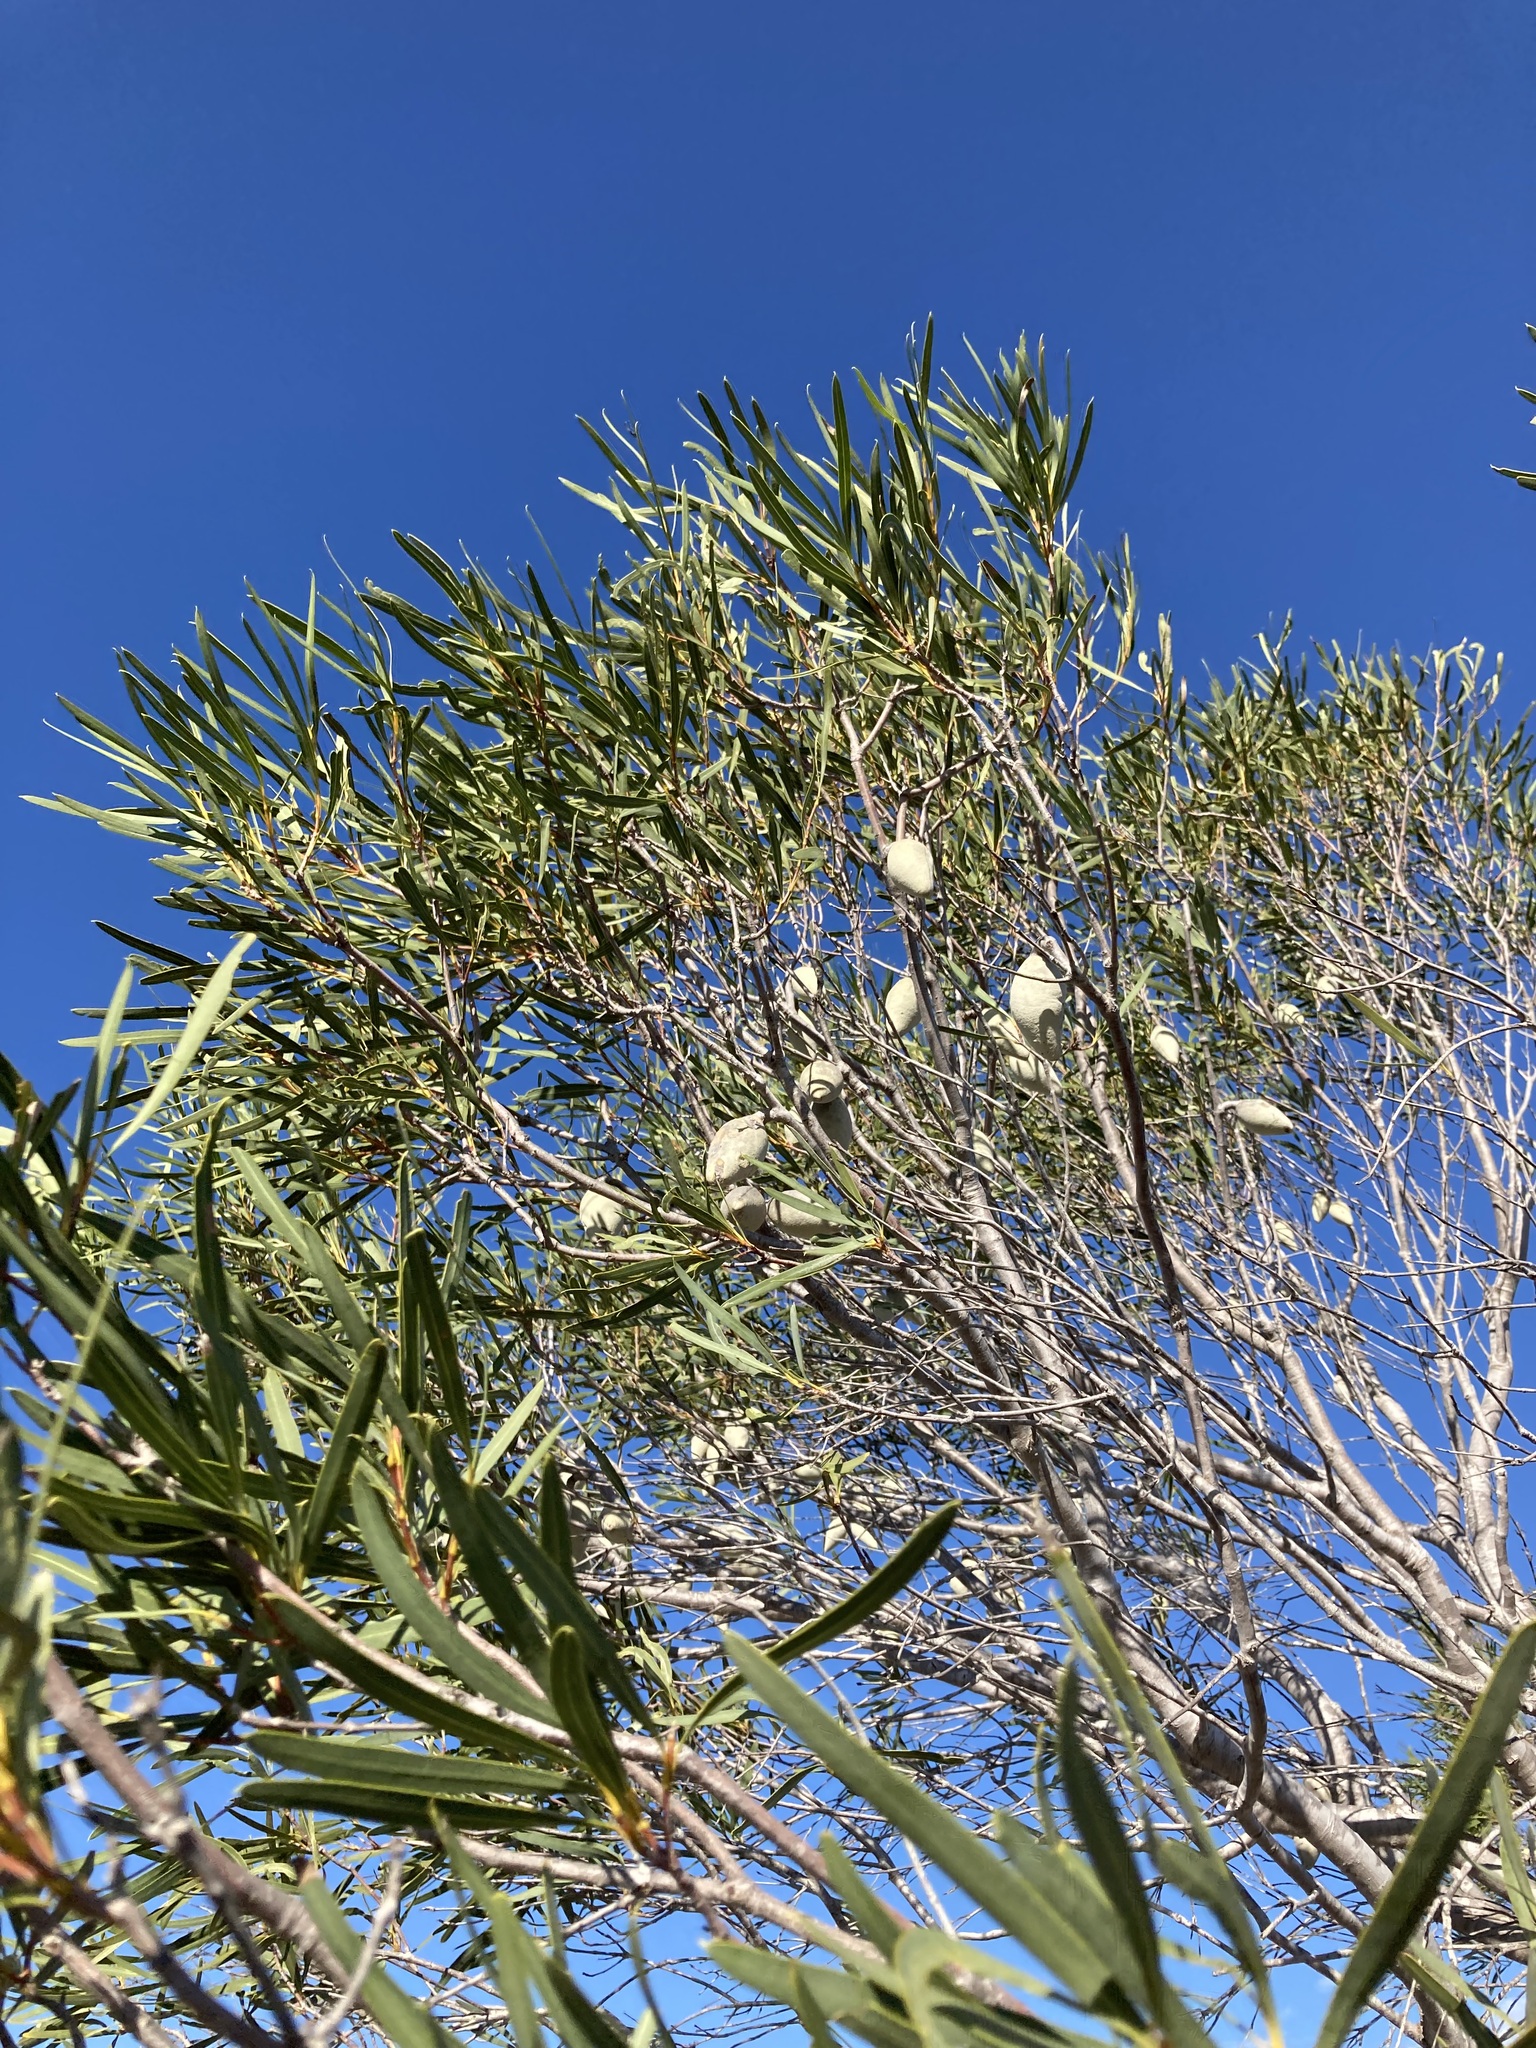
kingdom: Plantae
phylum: Tracheophyta
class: Magnoliopsida
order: Proteales
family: Proteaceae
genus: Xylomelum
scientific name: Xylomelum angustifolium
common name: Sandplain woody-pear
